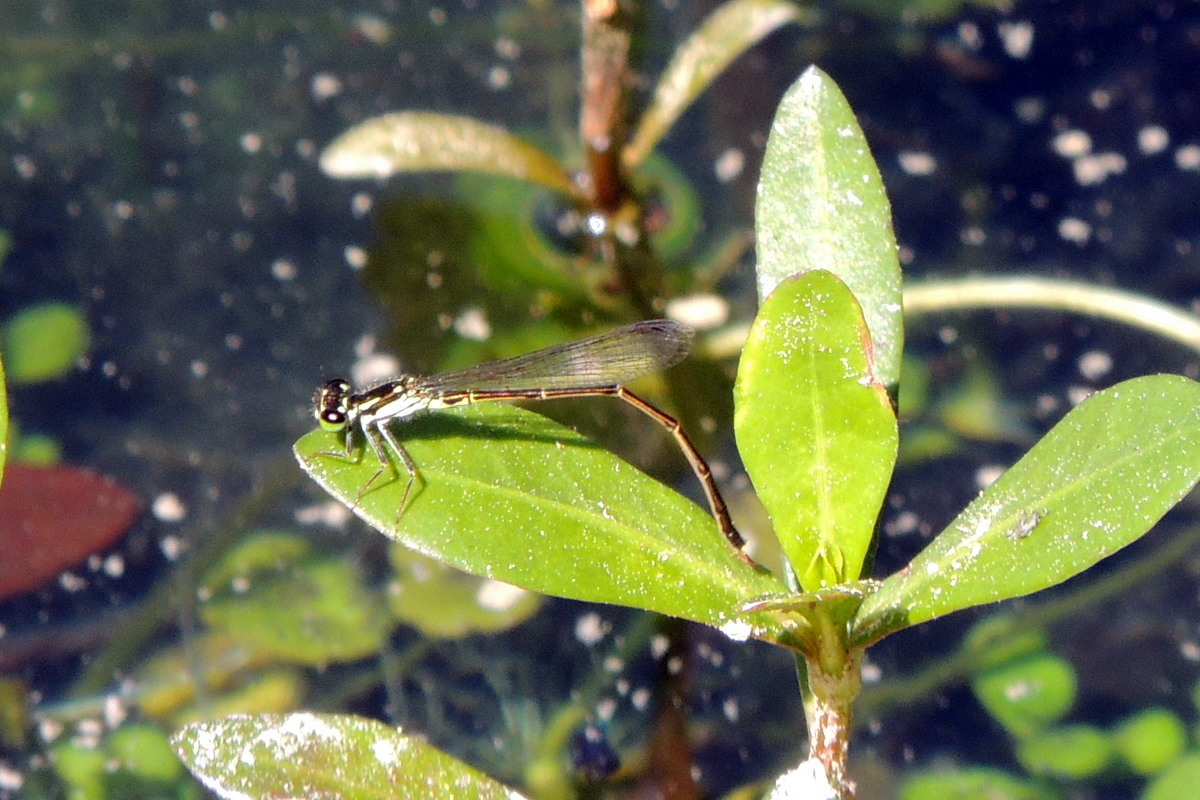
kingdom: Animalia
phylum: Arthropoda
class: Insecta
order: Odonata
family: Coenagrionidae
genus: Ischnura
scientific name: Ischnura posita
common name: Fragile forktail
